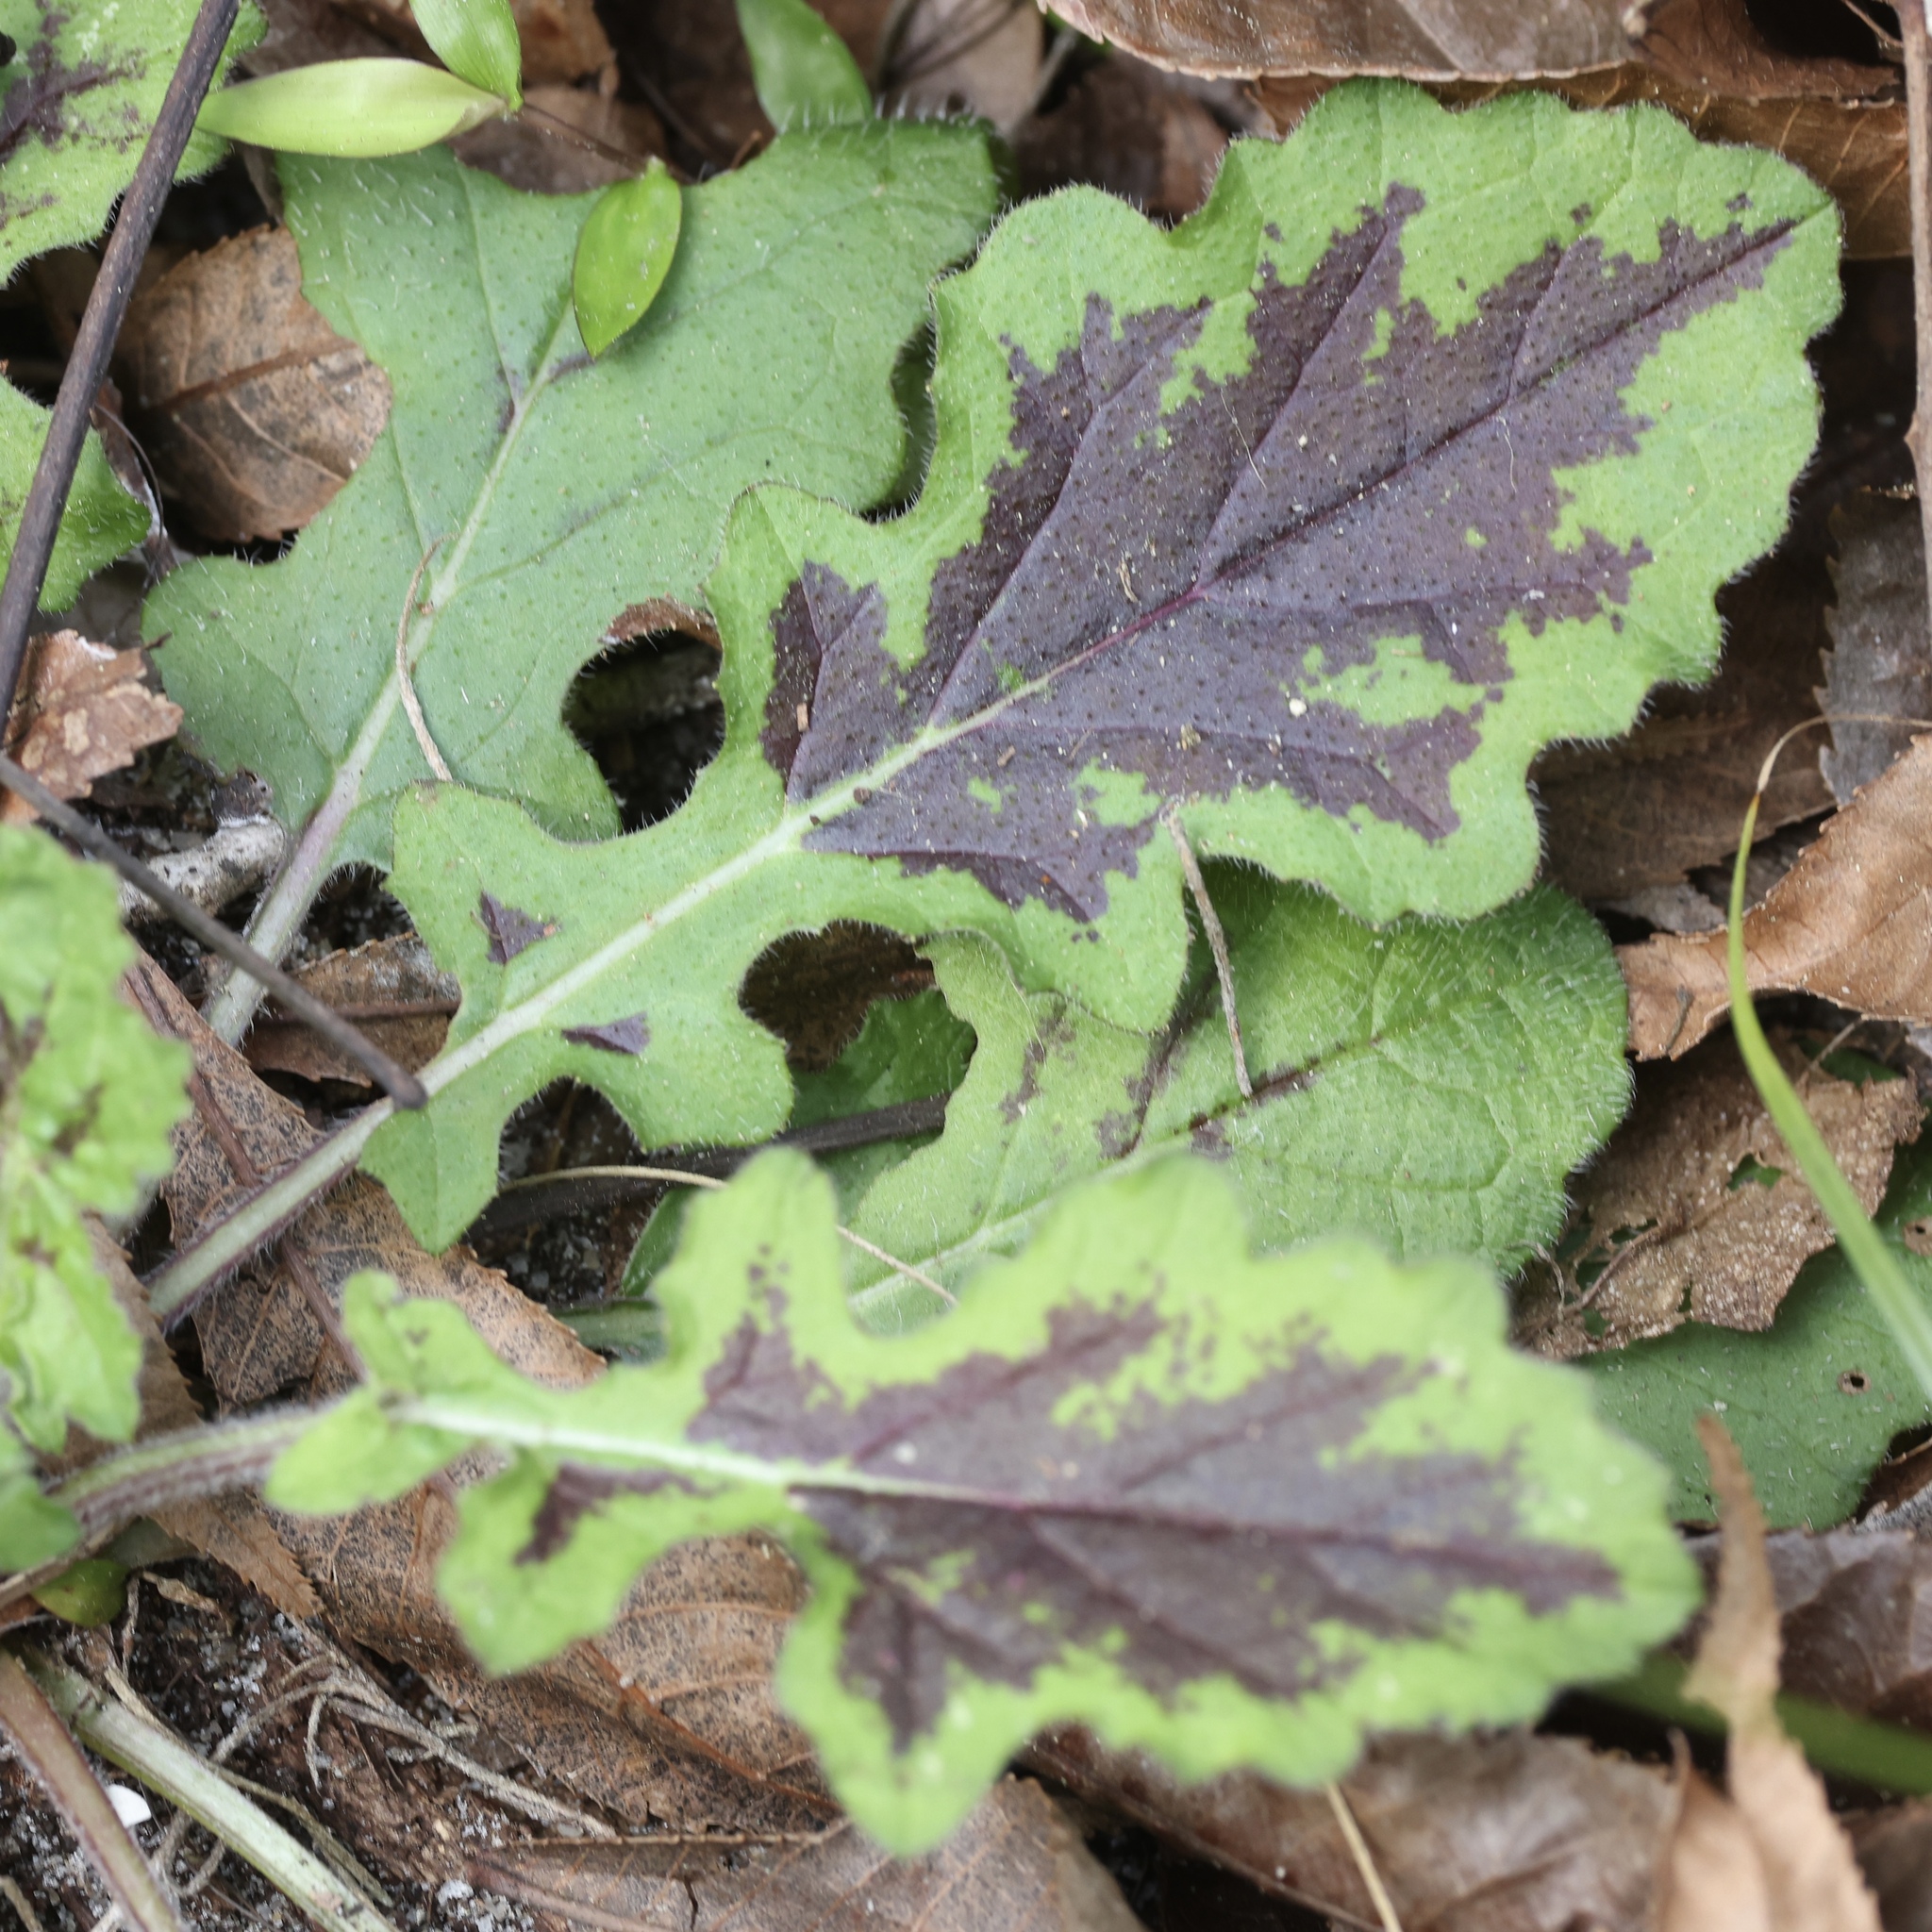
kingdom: Plantae
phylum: Tracheophyta
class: Magnoliopsida
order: Lamiales
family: Lamiaceae
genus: Salvia
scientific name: Salvia lyrata
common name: Cancerweed
